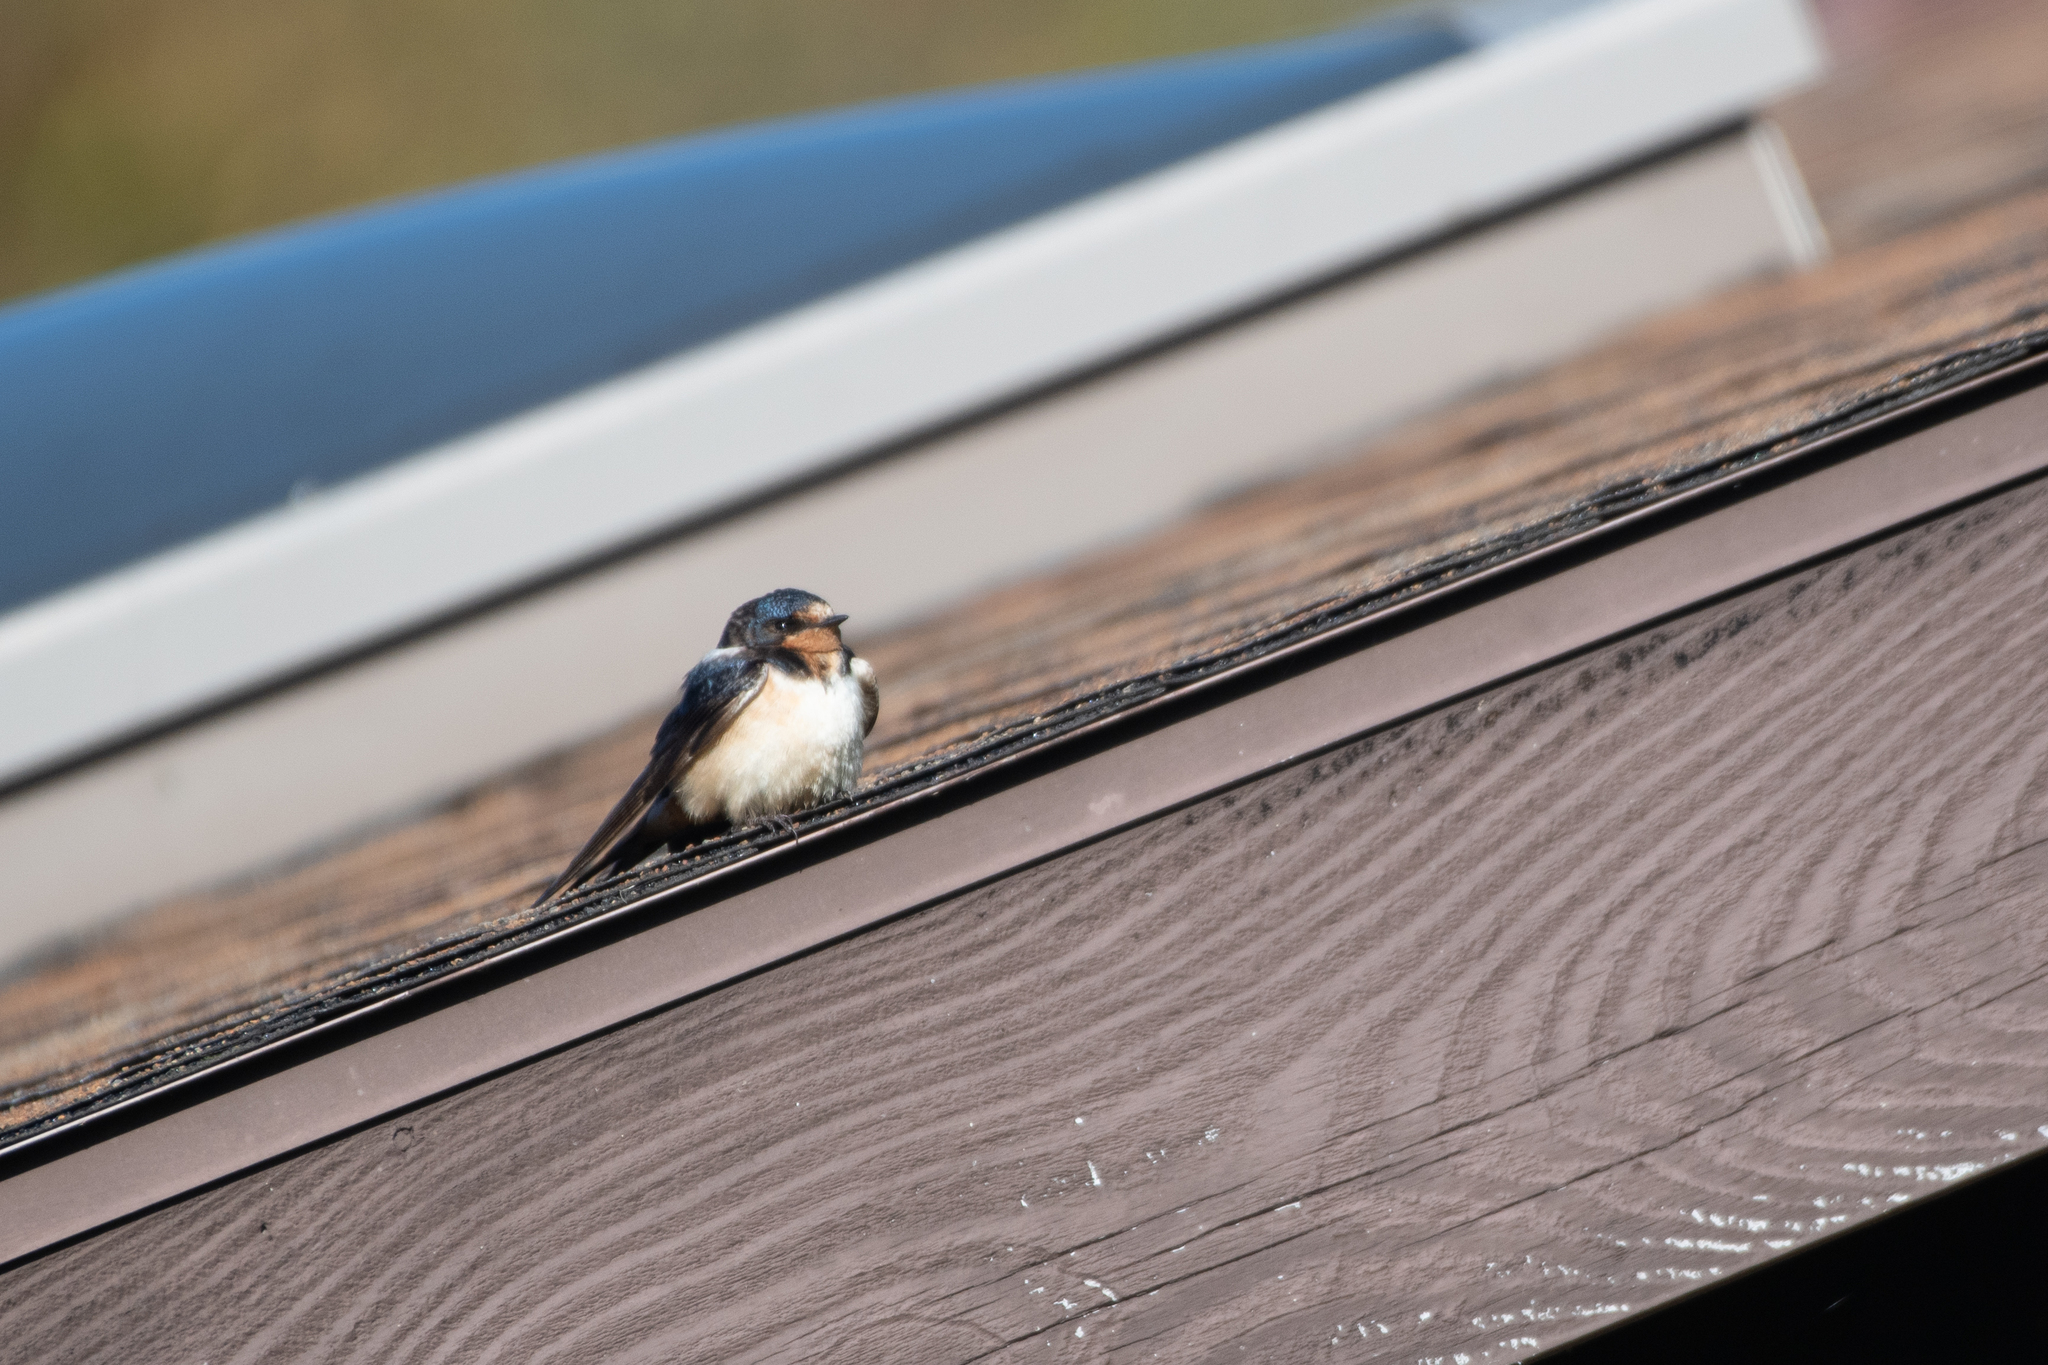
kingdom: Animalia
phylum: Chordata
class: Aves
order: Passeriformes
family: Hirundinidae
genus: Hirundo
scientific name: Hirundo rustica
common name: Barn swallow
